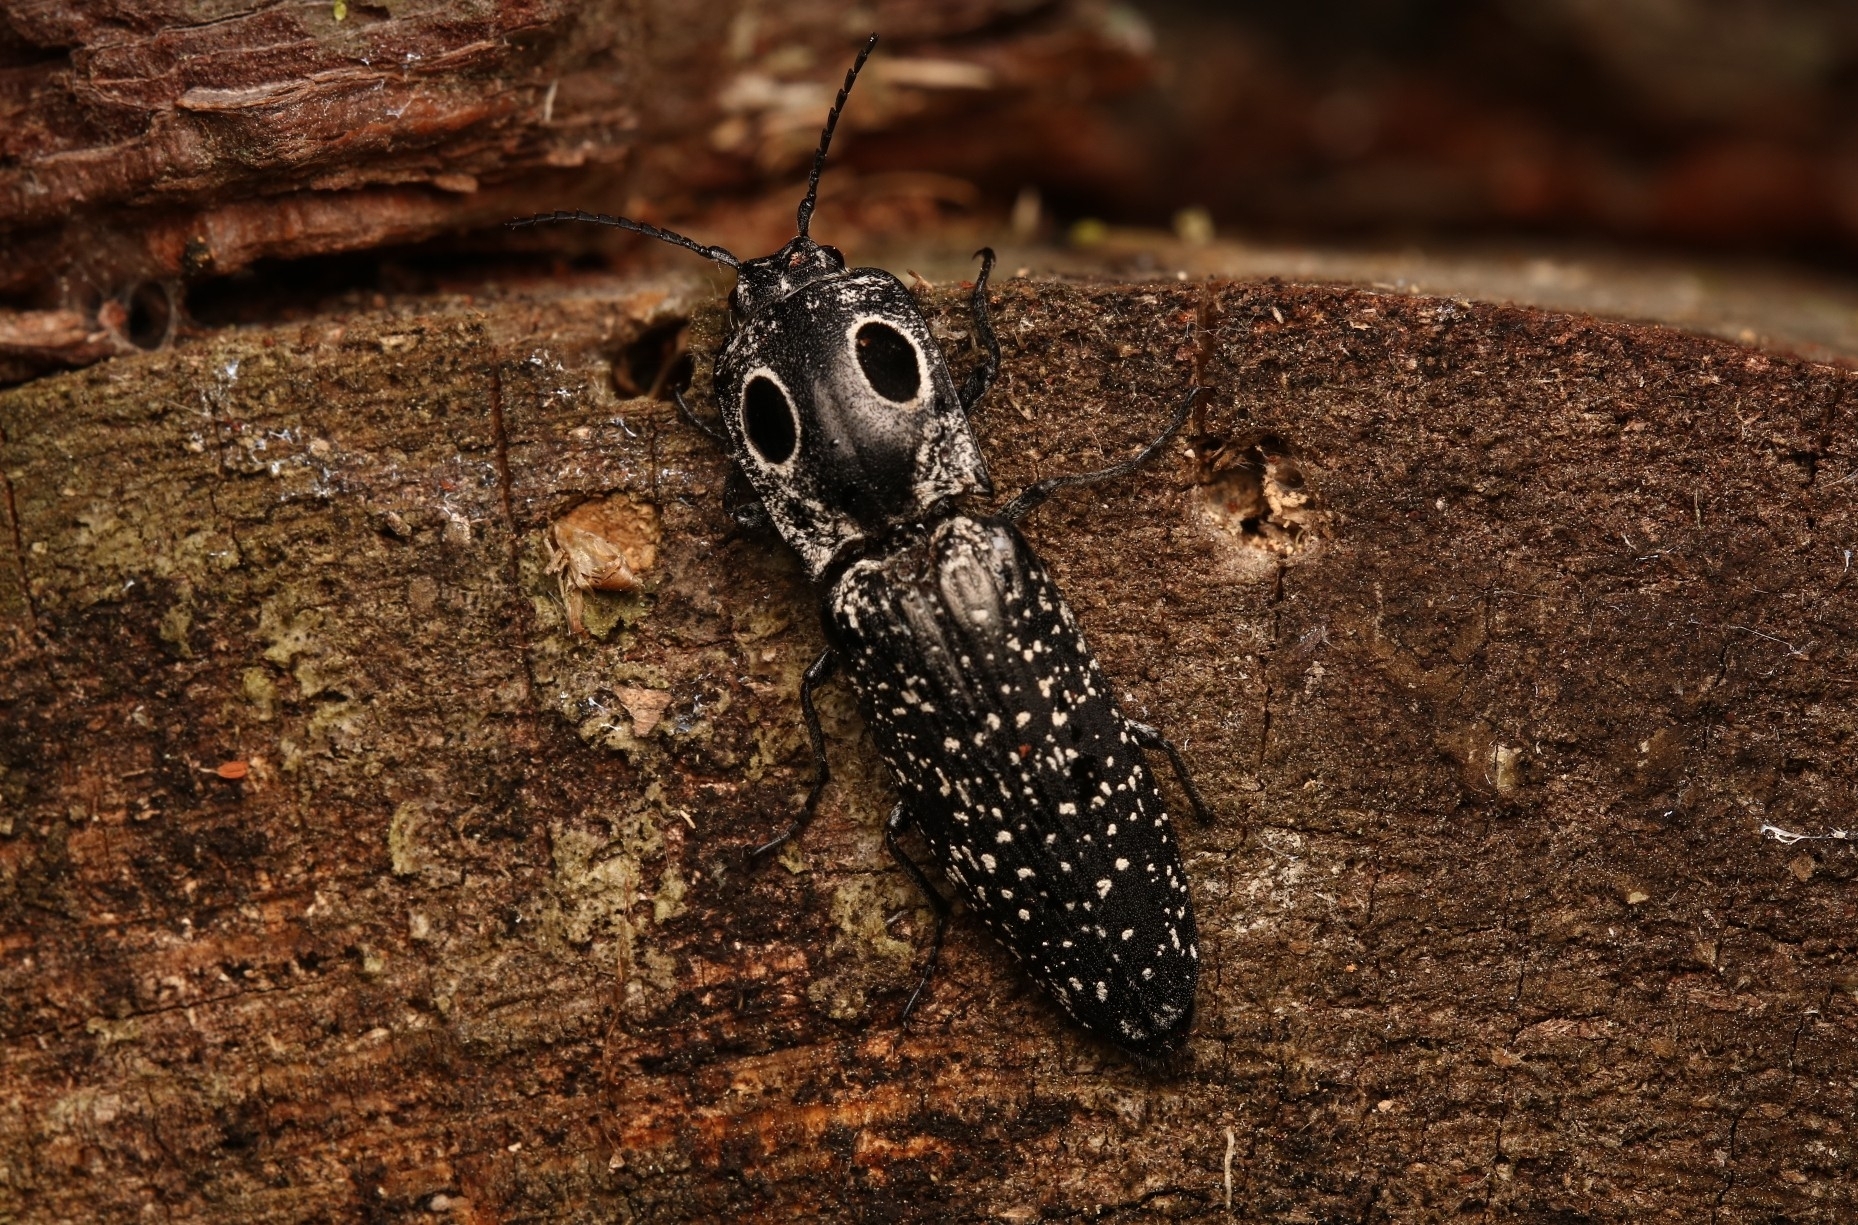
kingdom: Animalia
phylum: Arthropoda
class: Insecta
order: Coleoptera
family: Elateridae
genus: Alaus
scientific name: Alaus oculatus
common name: Eastern eyed click beetle
